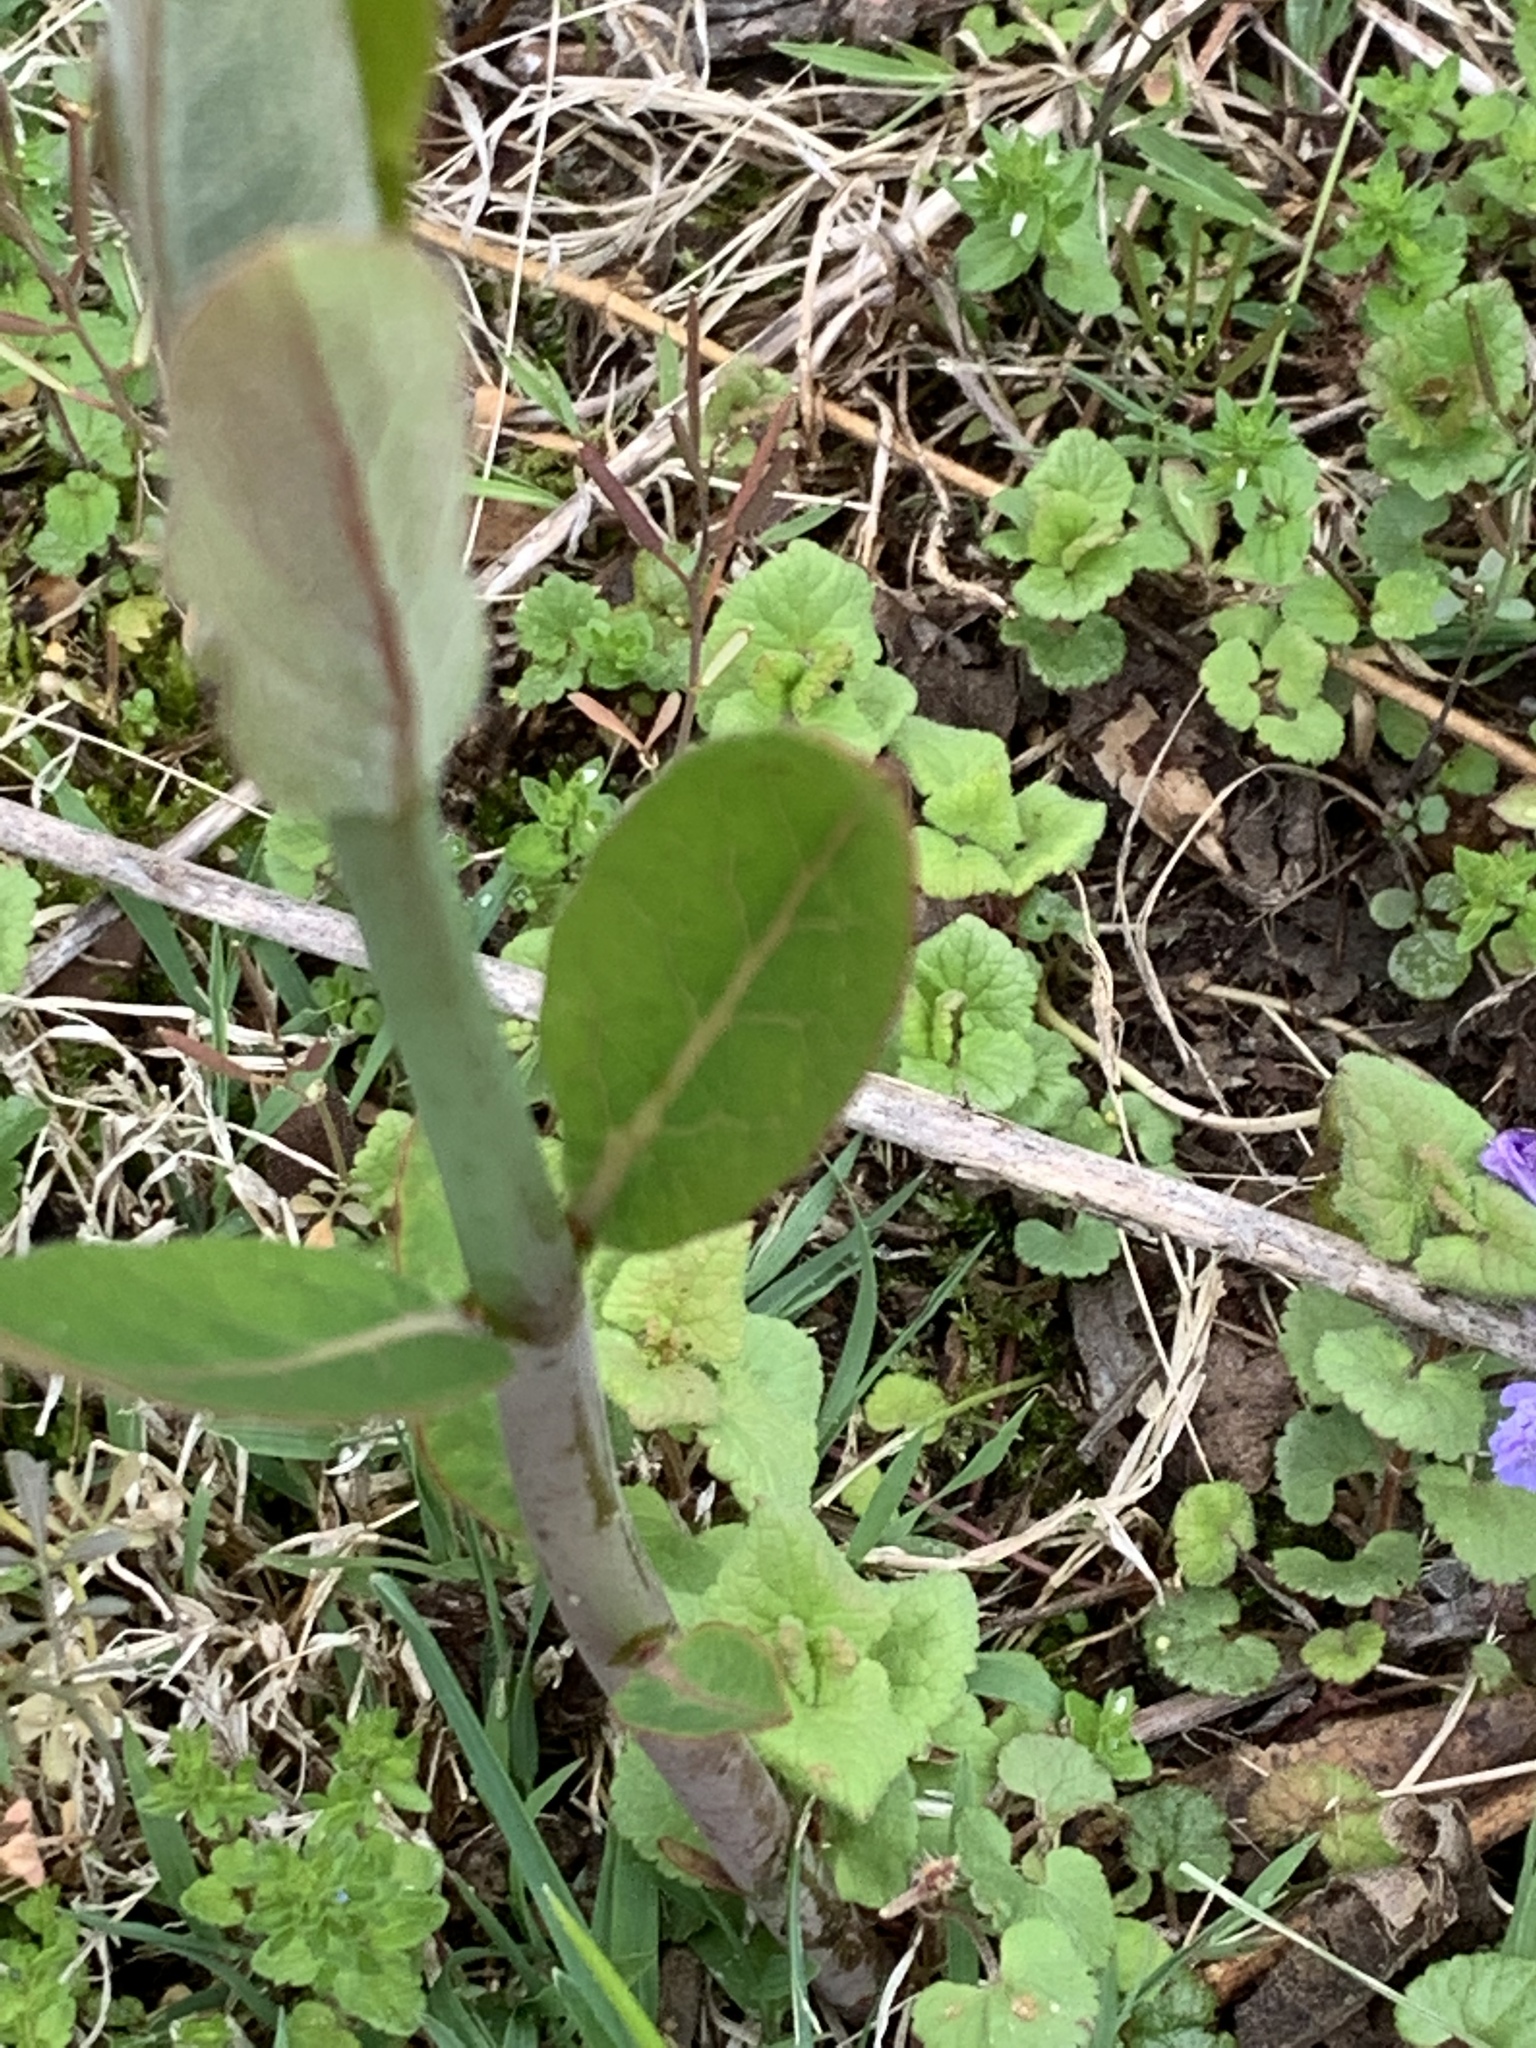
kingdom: Plantae
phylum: Tracheophyta
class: Magnoliopsida
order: Gentianales
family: Apocynaceae
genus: Apocynum
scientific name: Apocynum cannabinum
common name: Hemp dogbane
